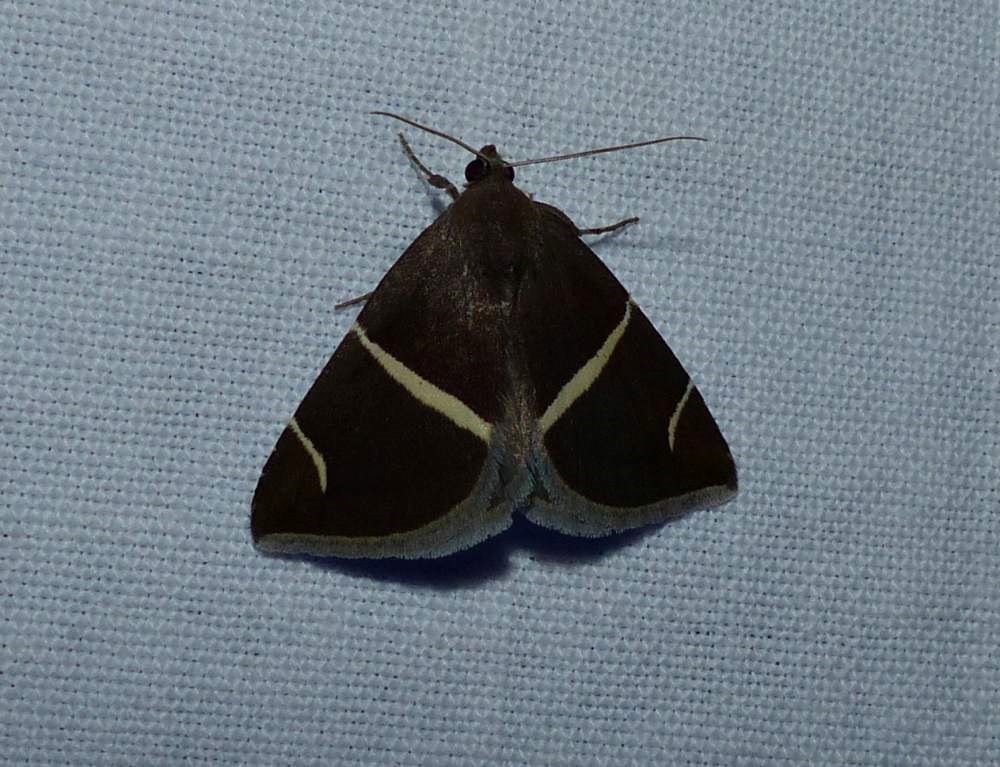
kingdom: Animalia
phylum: Arthropoda
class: Insecta
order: Lepidoptera
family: Erebidae
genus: Argyrostrotis
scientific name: Argyrostrotis anilis
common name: Short-lined chocolate
